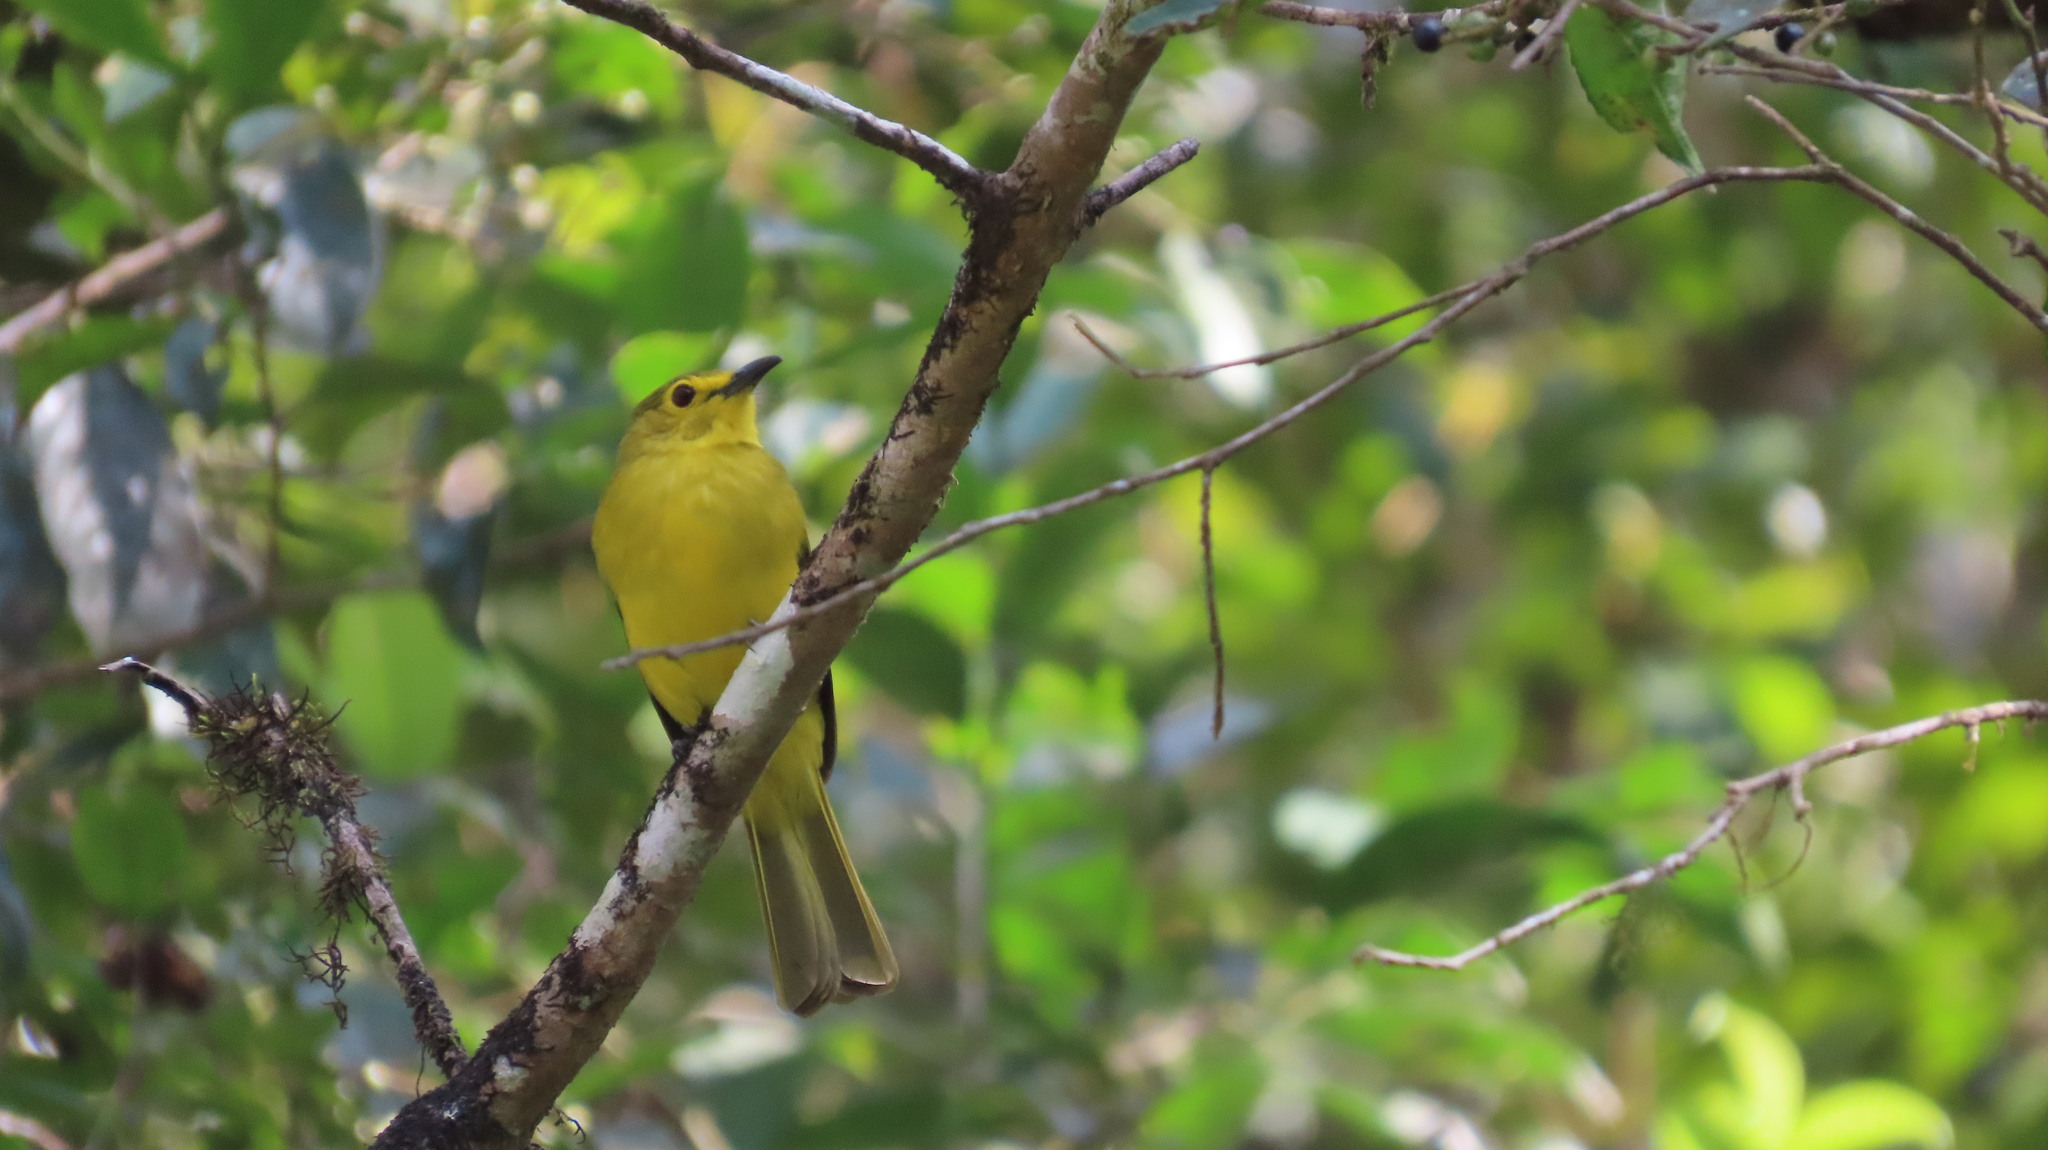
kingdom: Animalia
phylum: Chordata
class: Aves
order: Passeriformes
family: Pycnonotidae
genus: Acritillas
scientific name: Acritillas indica
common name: Yellow-browed bulbul
